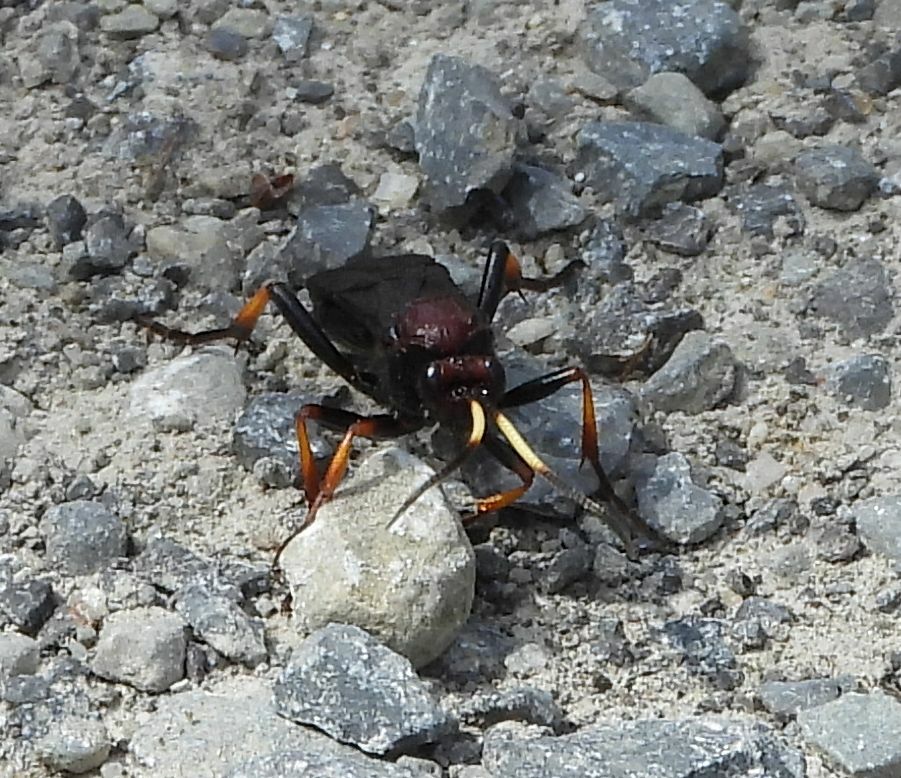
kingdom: Animalia
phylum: Arthropoda
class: Insecta
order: Hymenoptera
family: Ichneumonidae
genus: Ichneumon
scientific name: Ichneumon centrator
